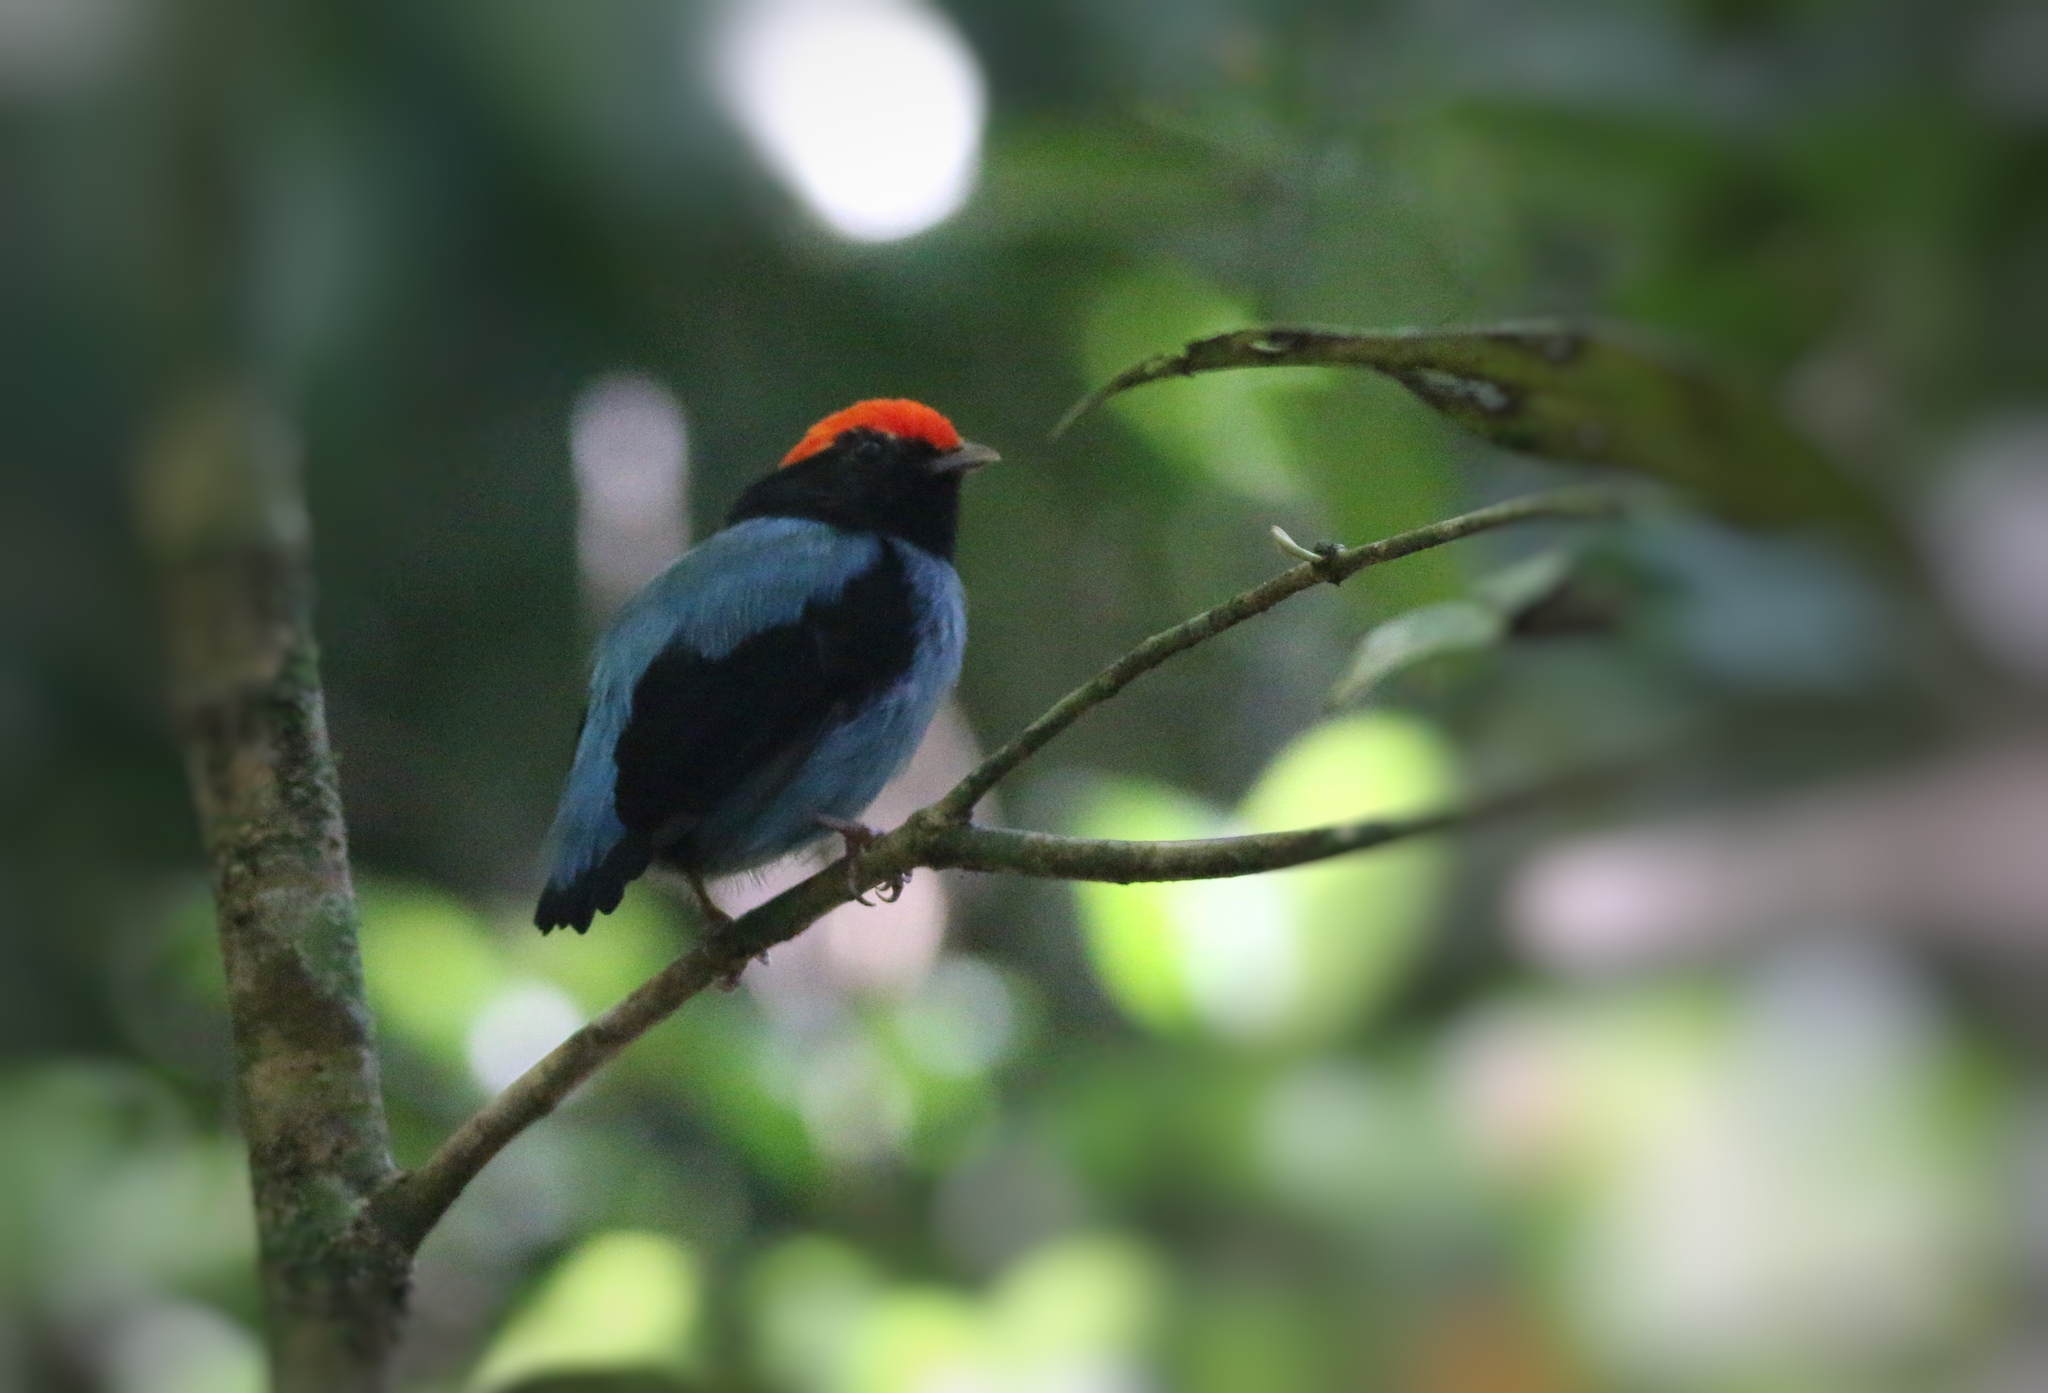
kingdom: Animalia
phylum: Chordata
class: Aves
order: Passeriformes
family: Pipridae
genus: Chiroxiphia
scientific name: Chiroxiphia caudata
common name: Blue manakin
